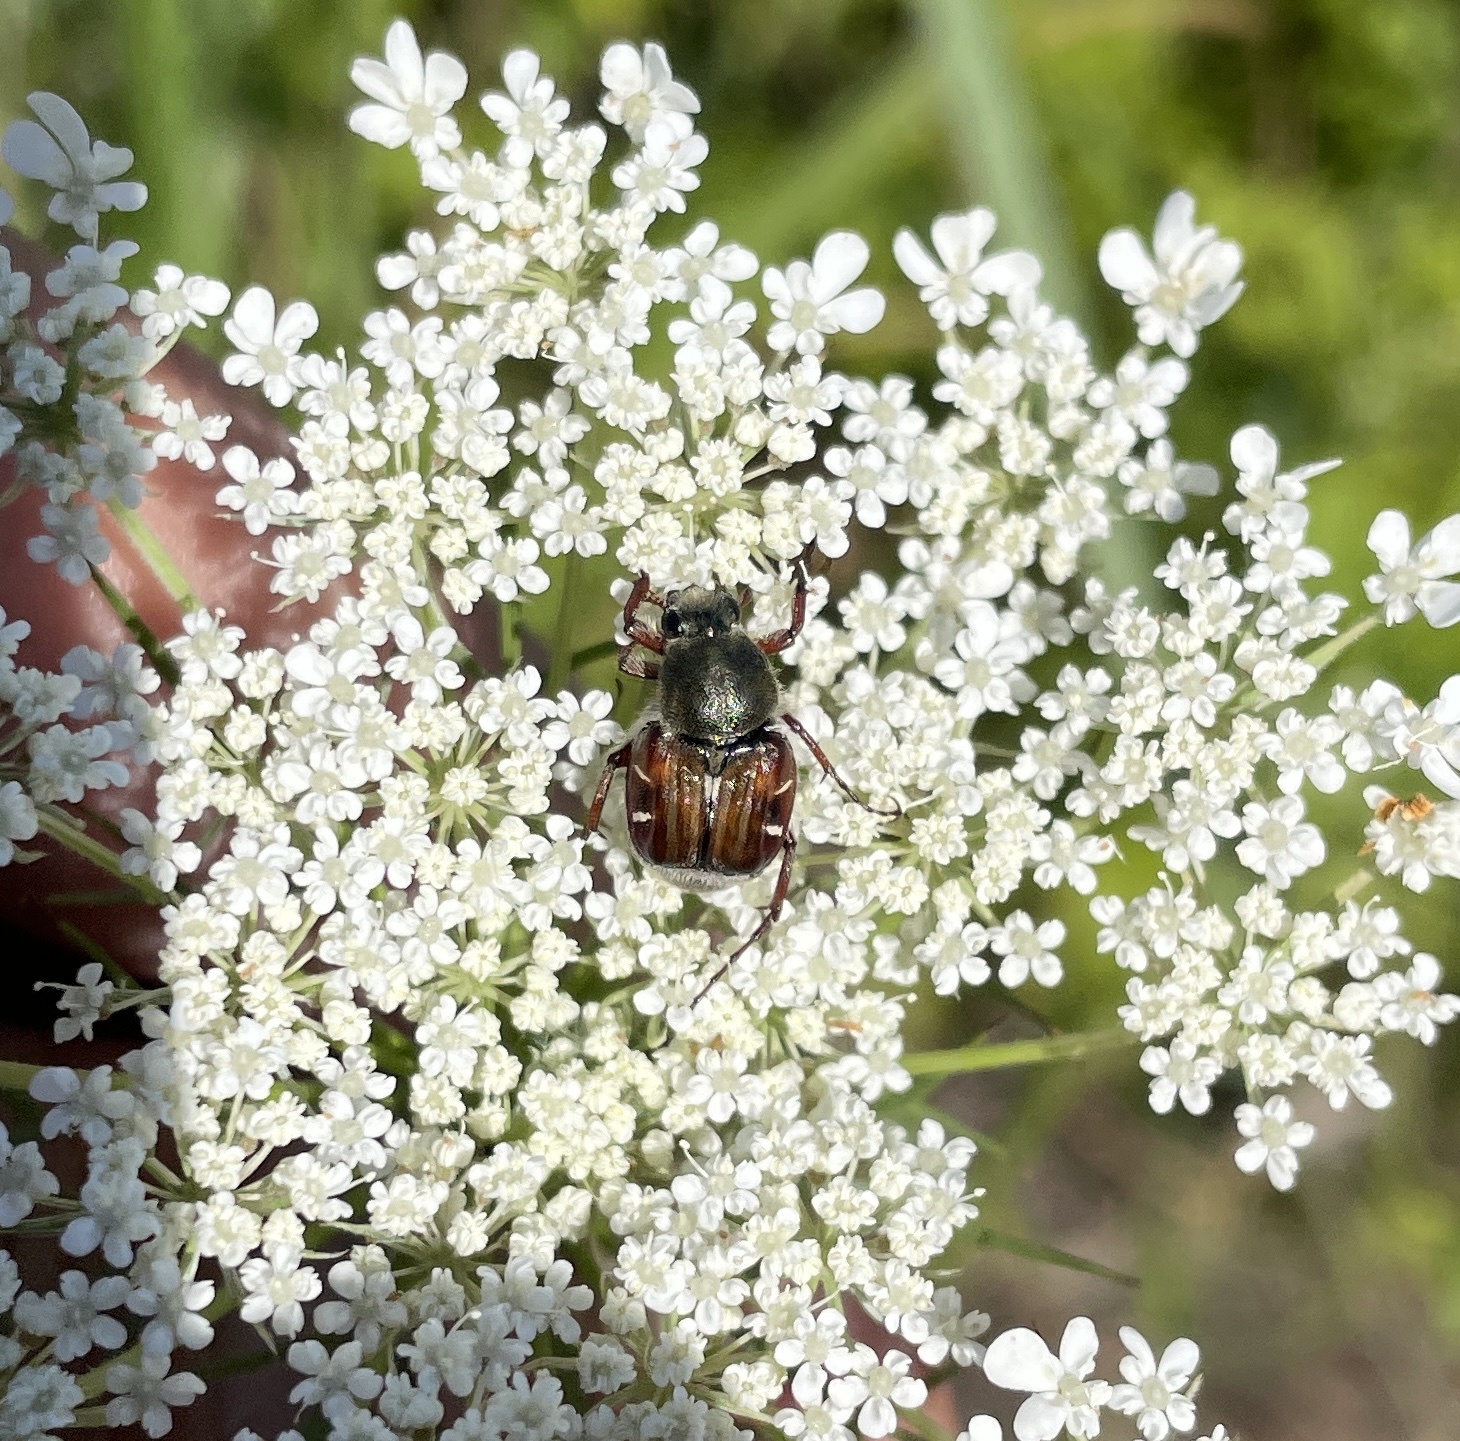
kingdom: Animalia
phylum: Arthropoda
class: Insecta
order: Coleoptera
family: Scarabaeidae
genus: Trichiotinus
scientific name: Trichiotinus piger
